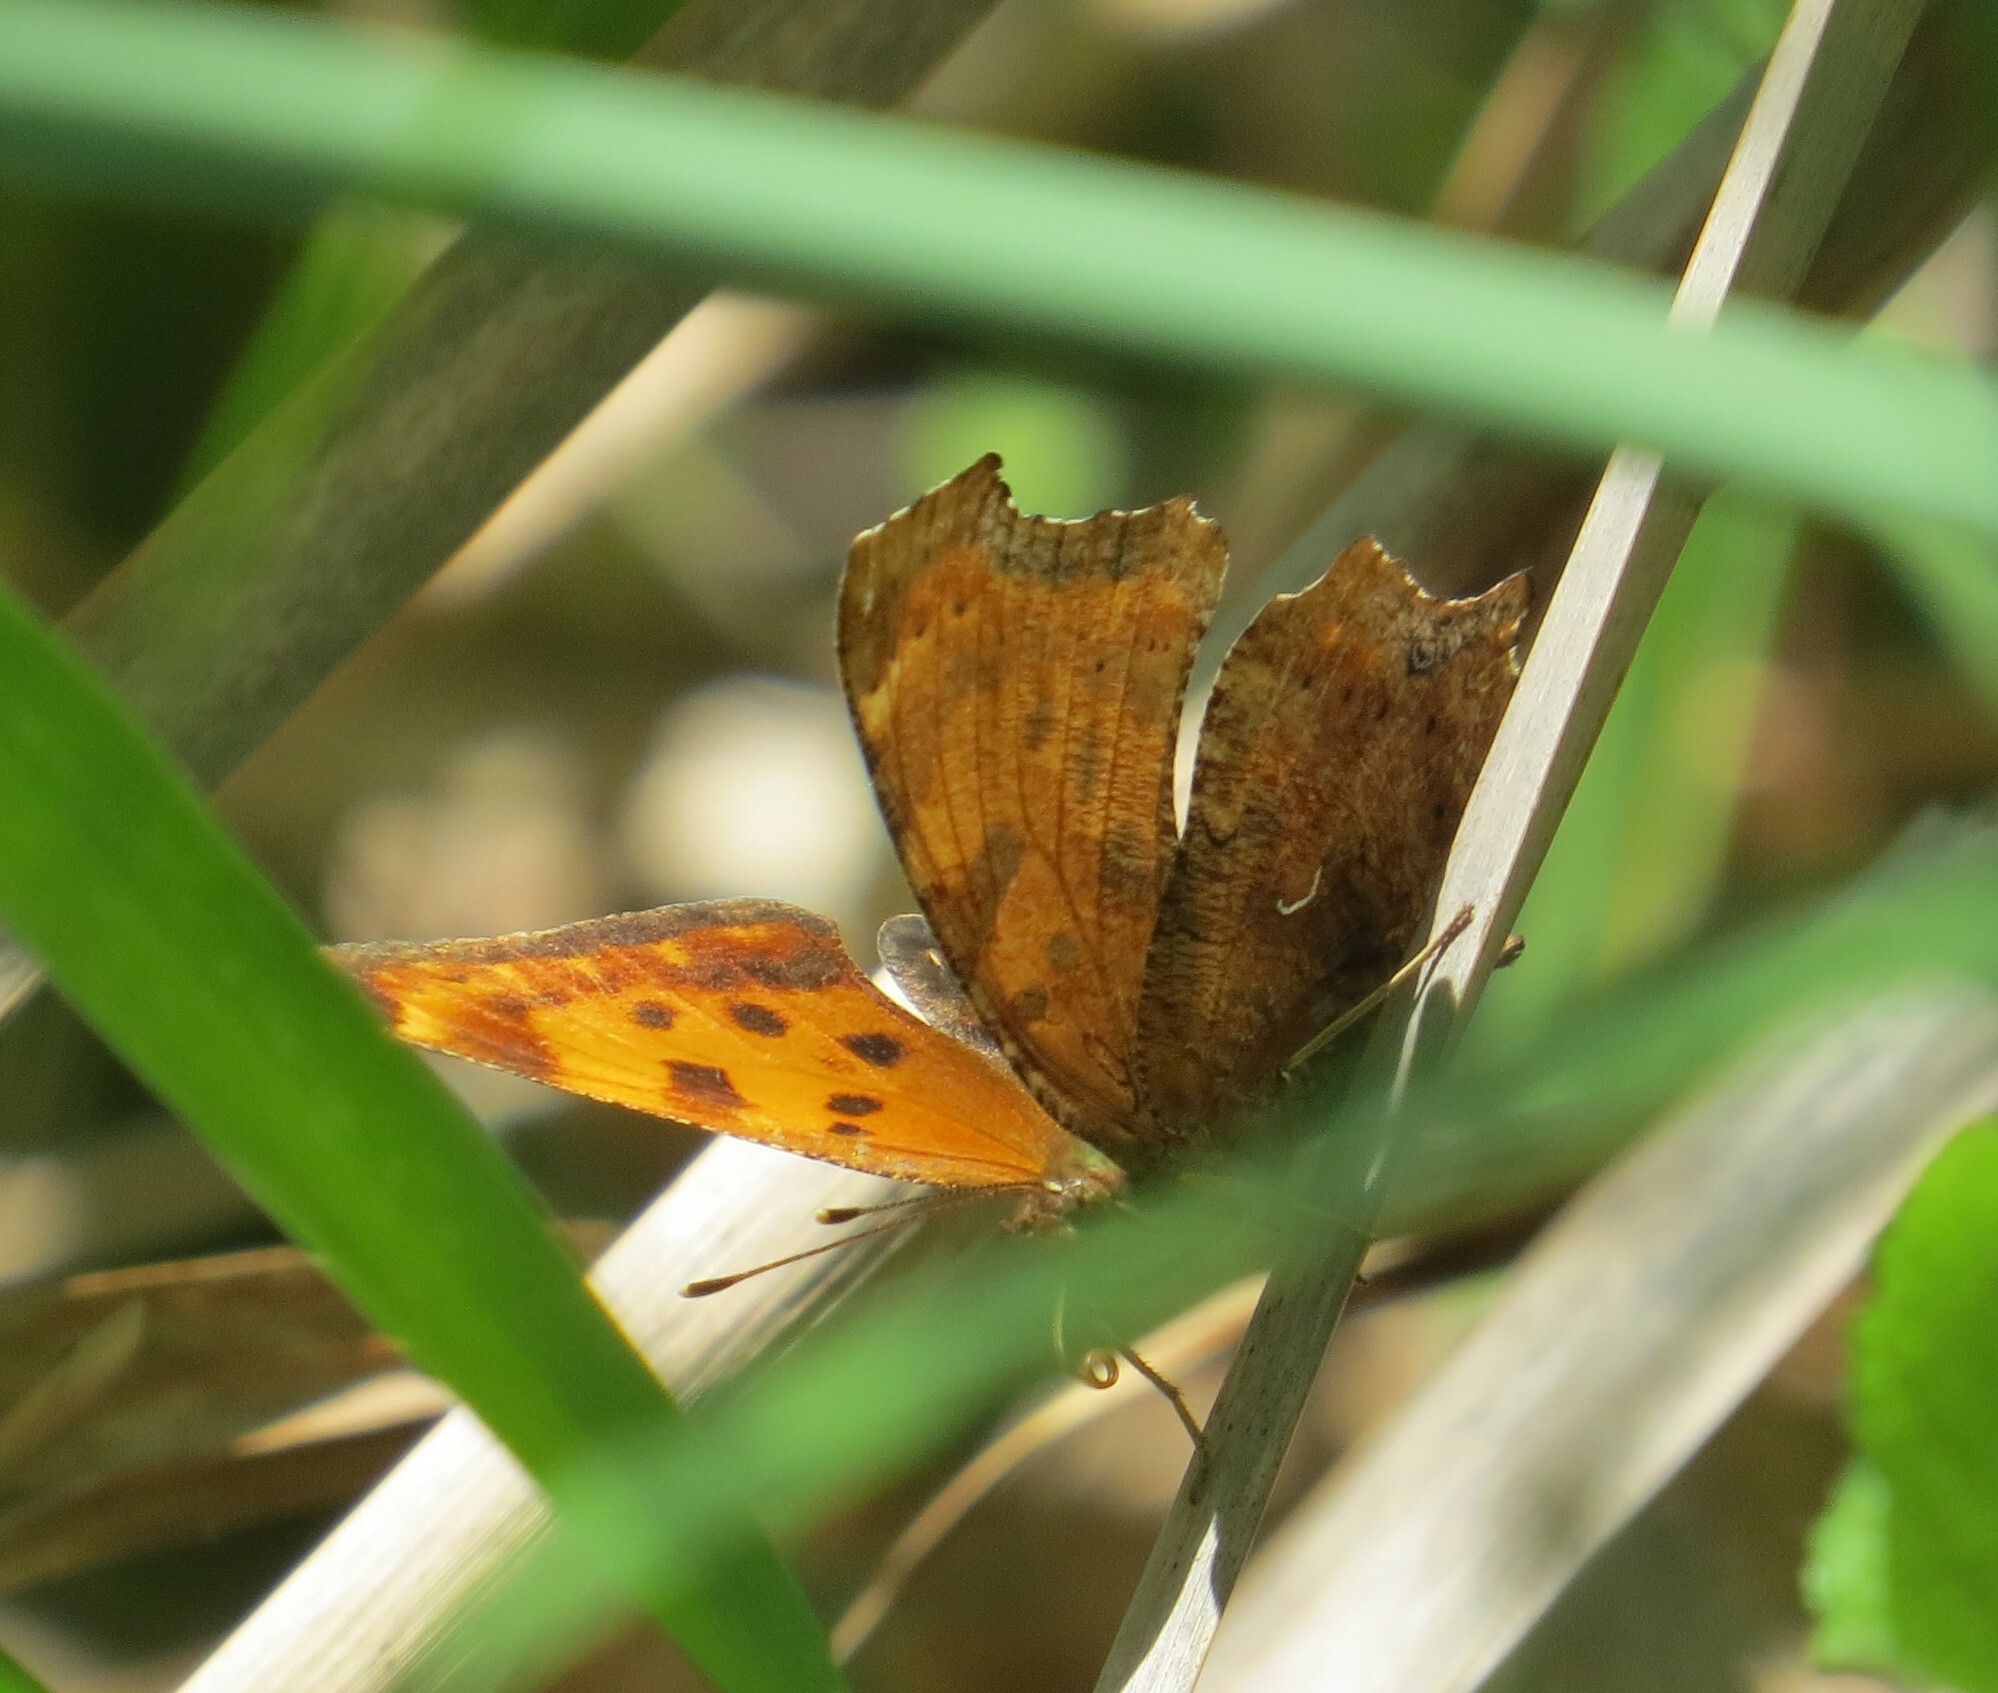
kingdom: Animalia
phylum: Arthropoda
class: Insecta
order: Lepidoptera
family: Nymphalidae
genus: Polygonia
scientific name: Polygonia comma
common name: Eastern comma
